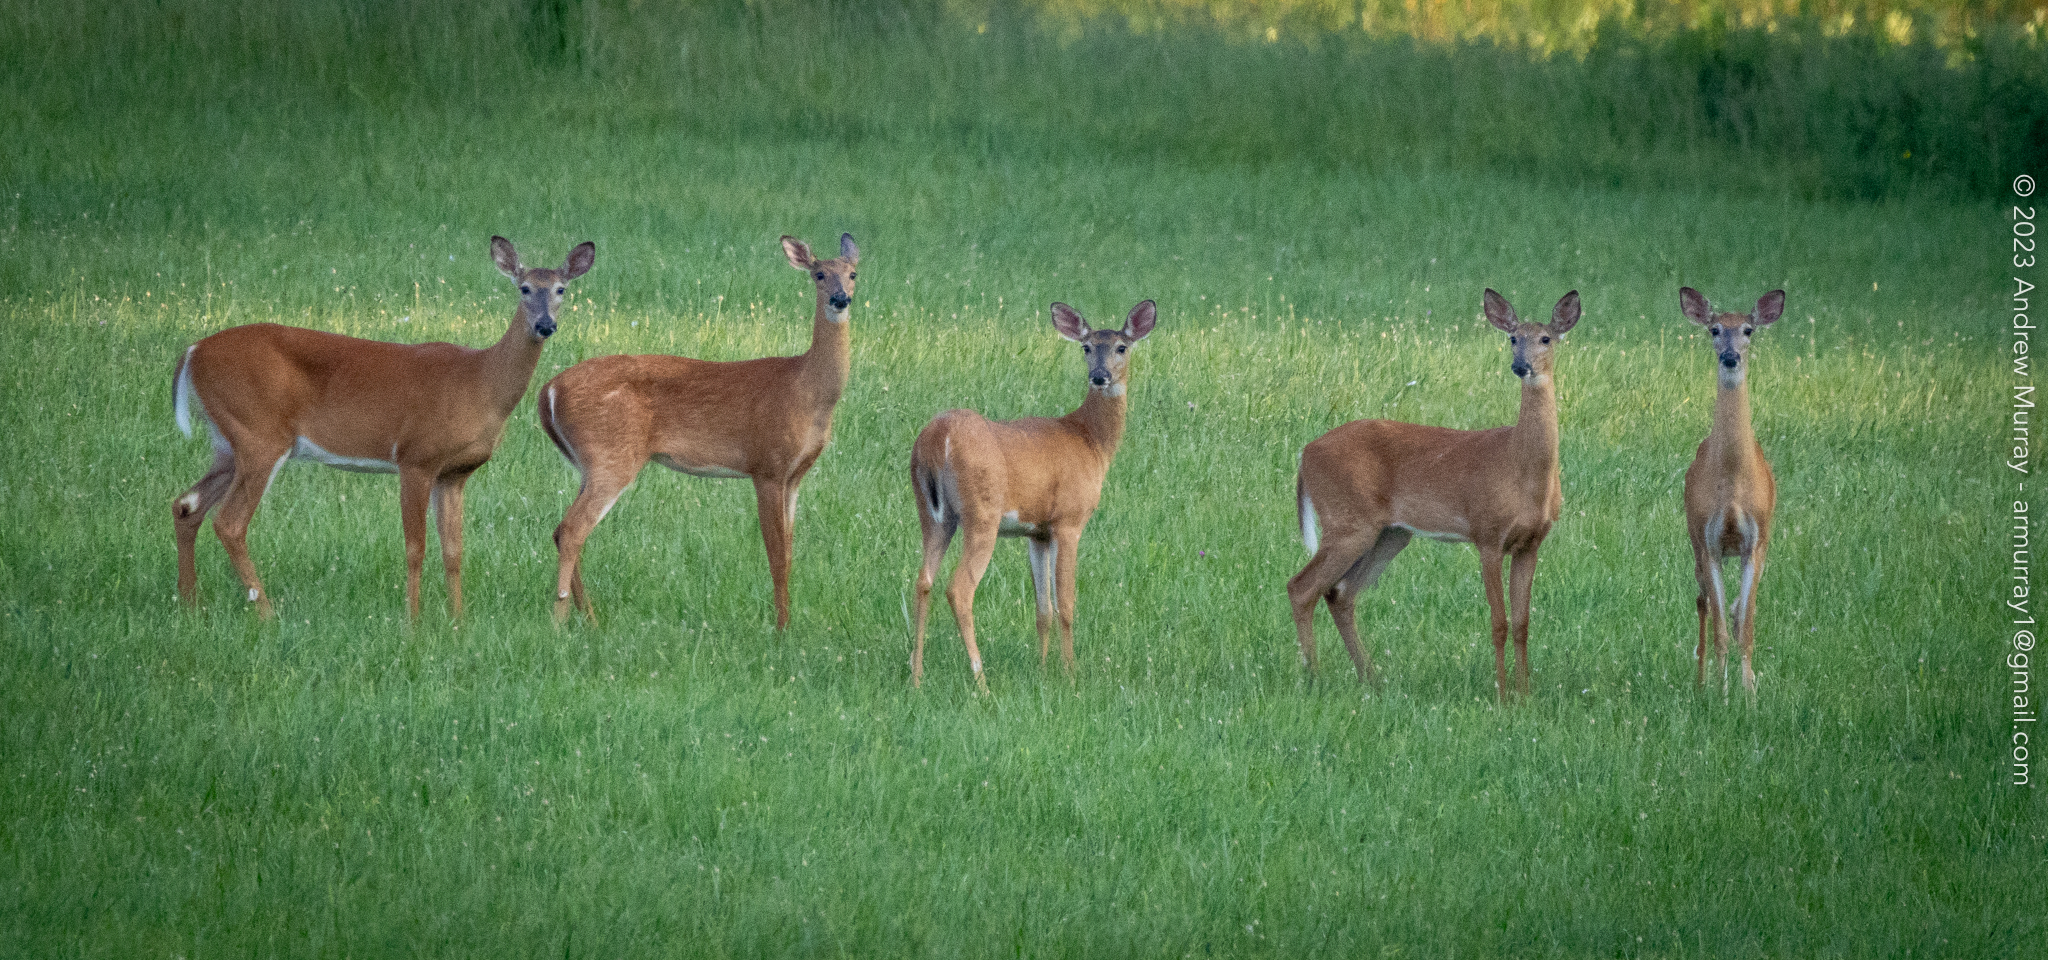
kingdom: Animalia
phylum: Chordata
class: Mammalia
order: Artiodactyla
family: Cervidae
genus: Odocoileus
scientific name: Odocoileus virginianus
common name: White-tailed deer
